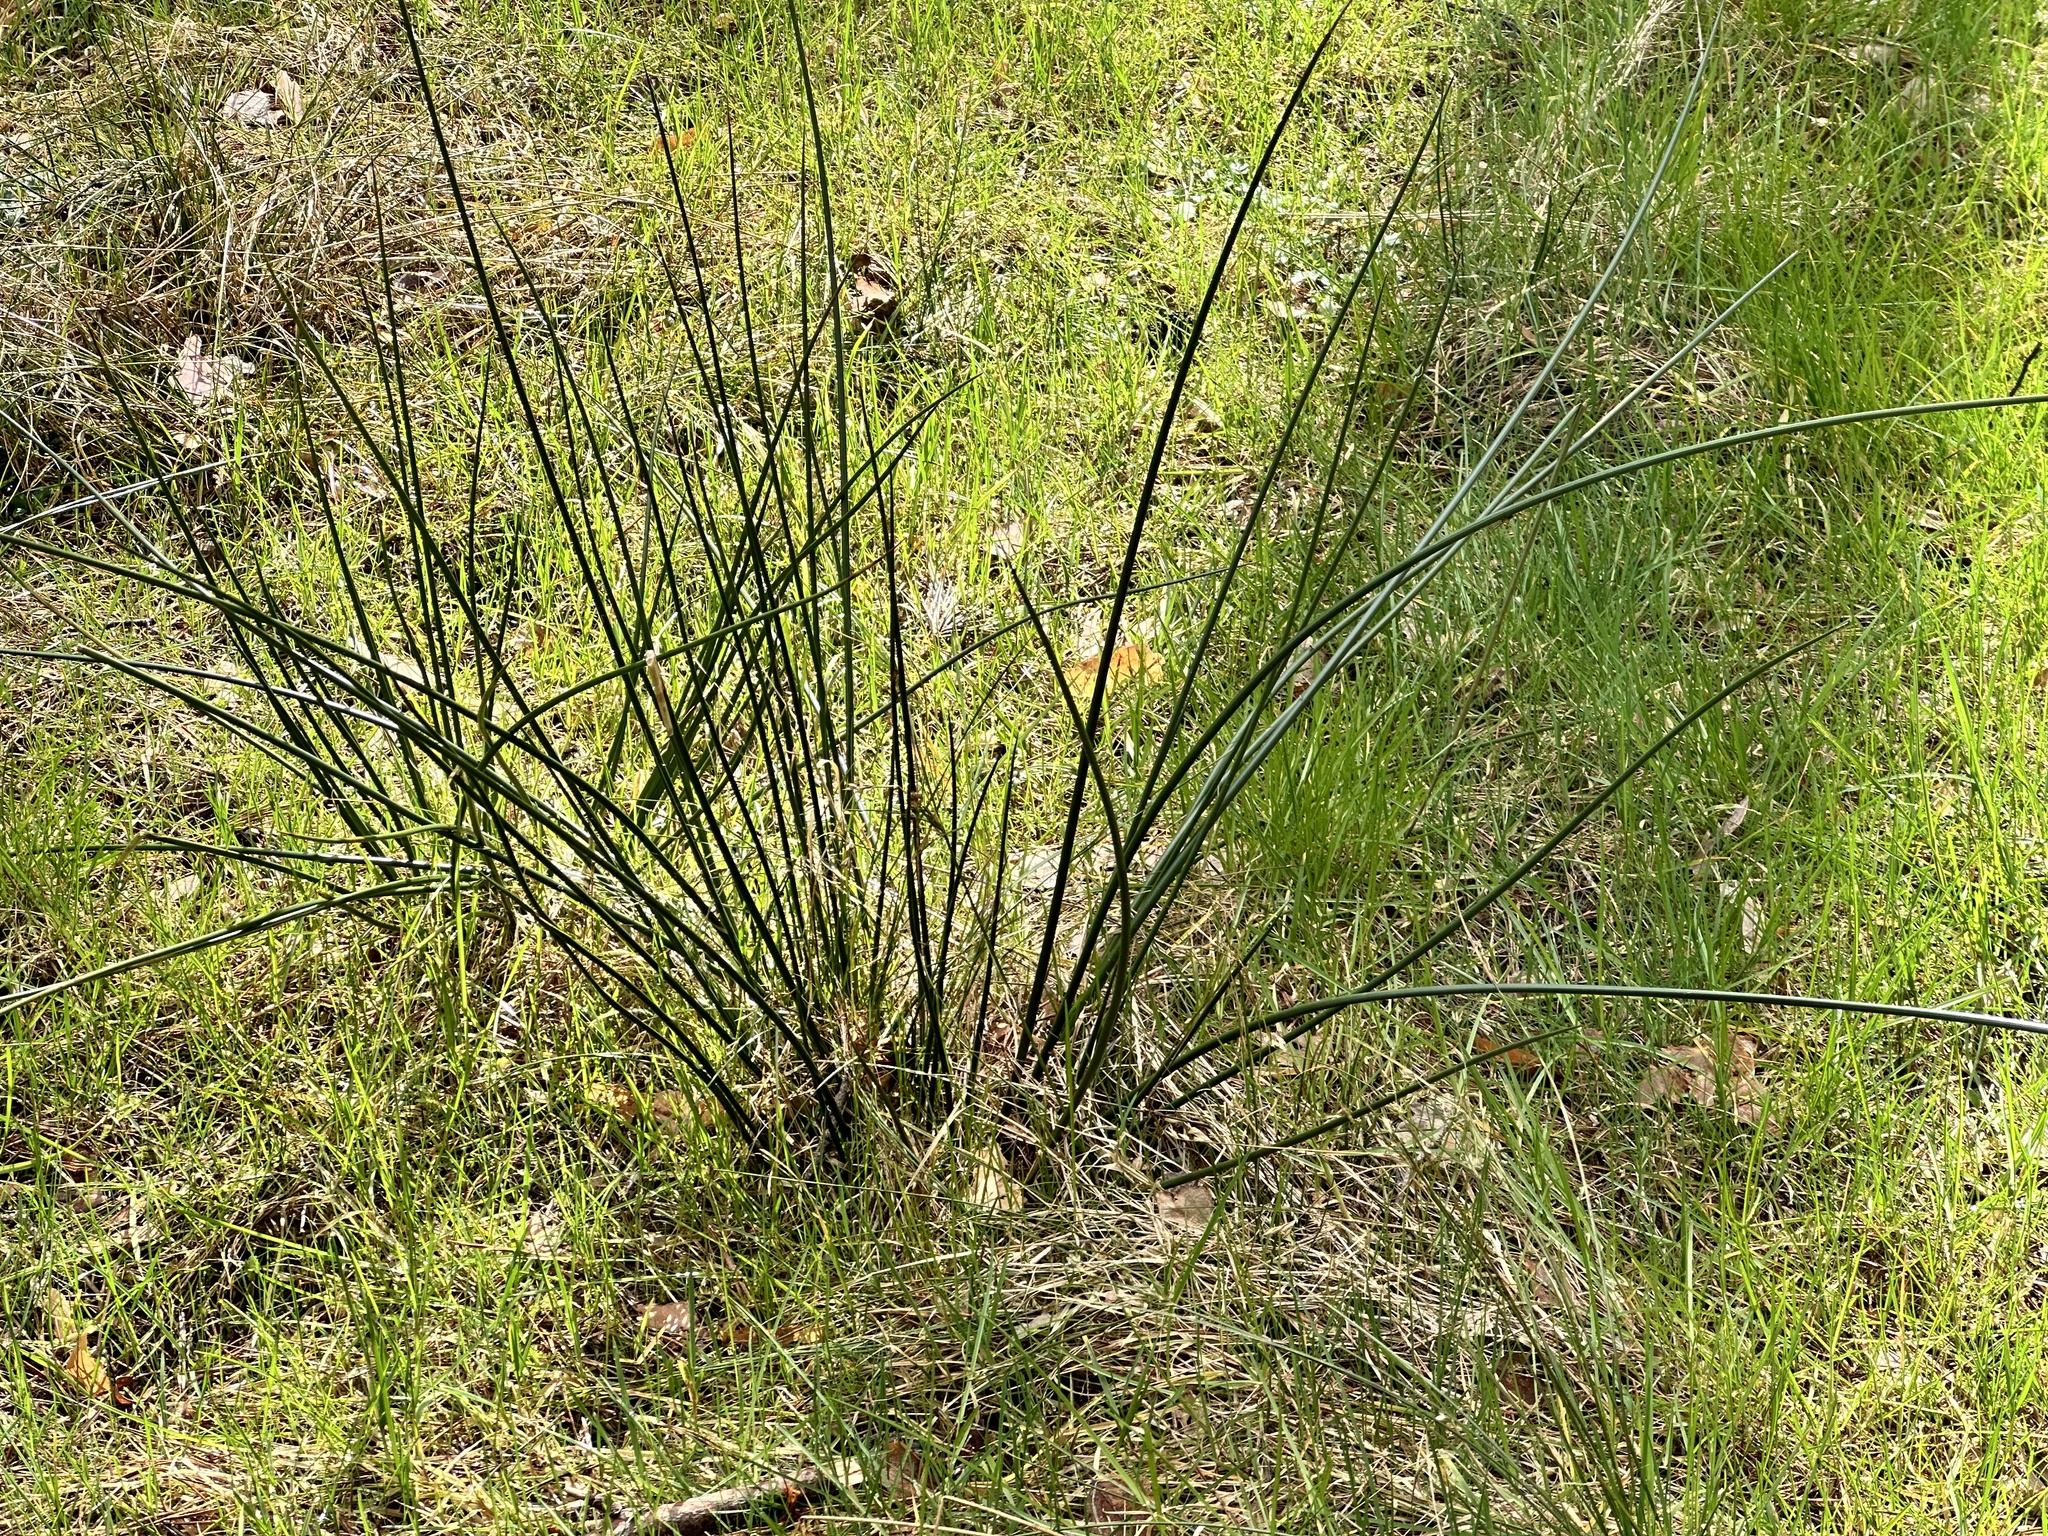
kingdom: Plantae
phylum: Tracheophyta
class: Liliopsida
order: Poales
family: Juncaceae
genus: Juncus
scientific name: Juncus effusus
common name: Soft rush
